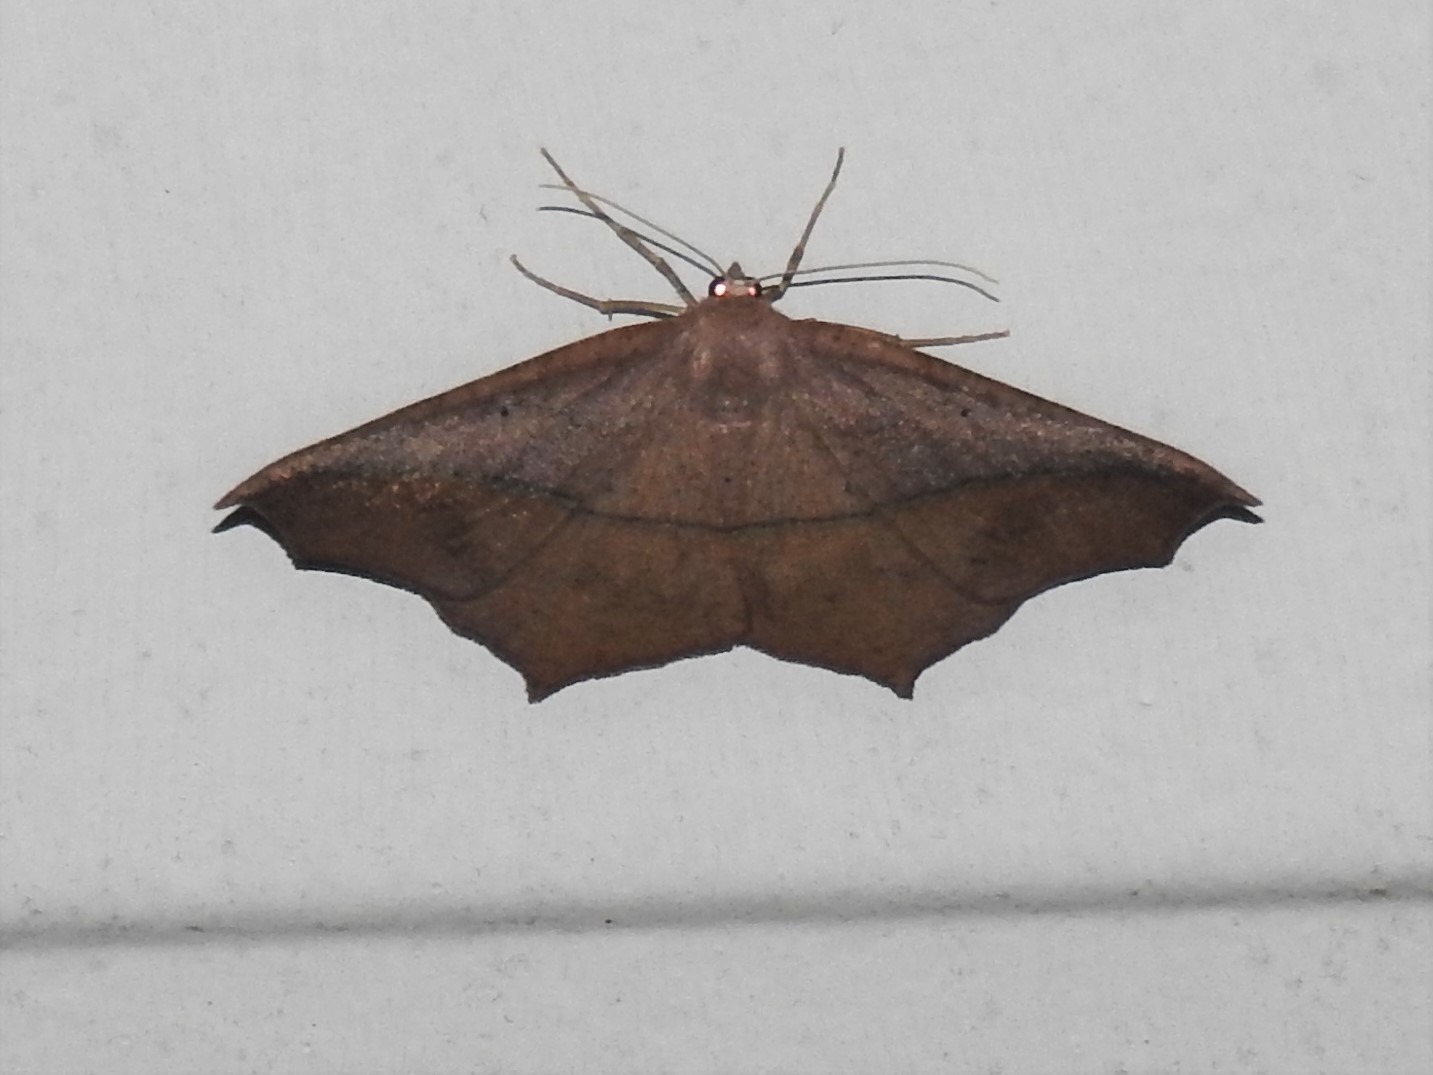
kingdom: Animalia
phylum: Arthropoda
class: Insecta
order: Lepidoptera
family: Geometridae
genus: Prochoerodes
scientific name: Prochoerodes lineola
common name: Large maple spanworm
